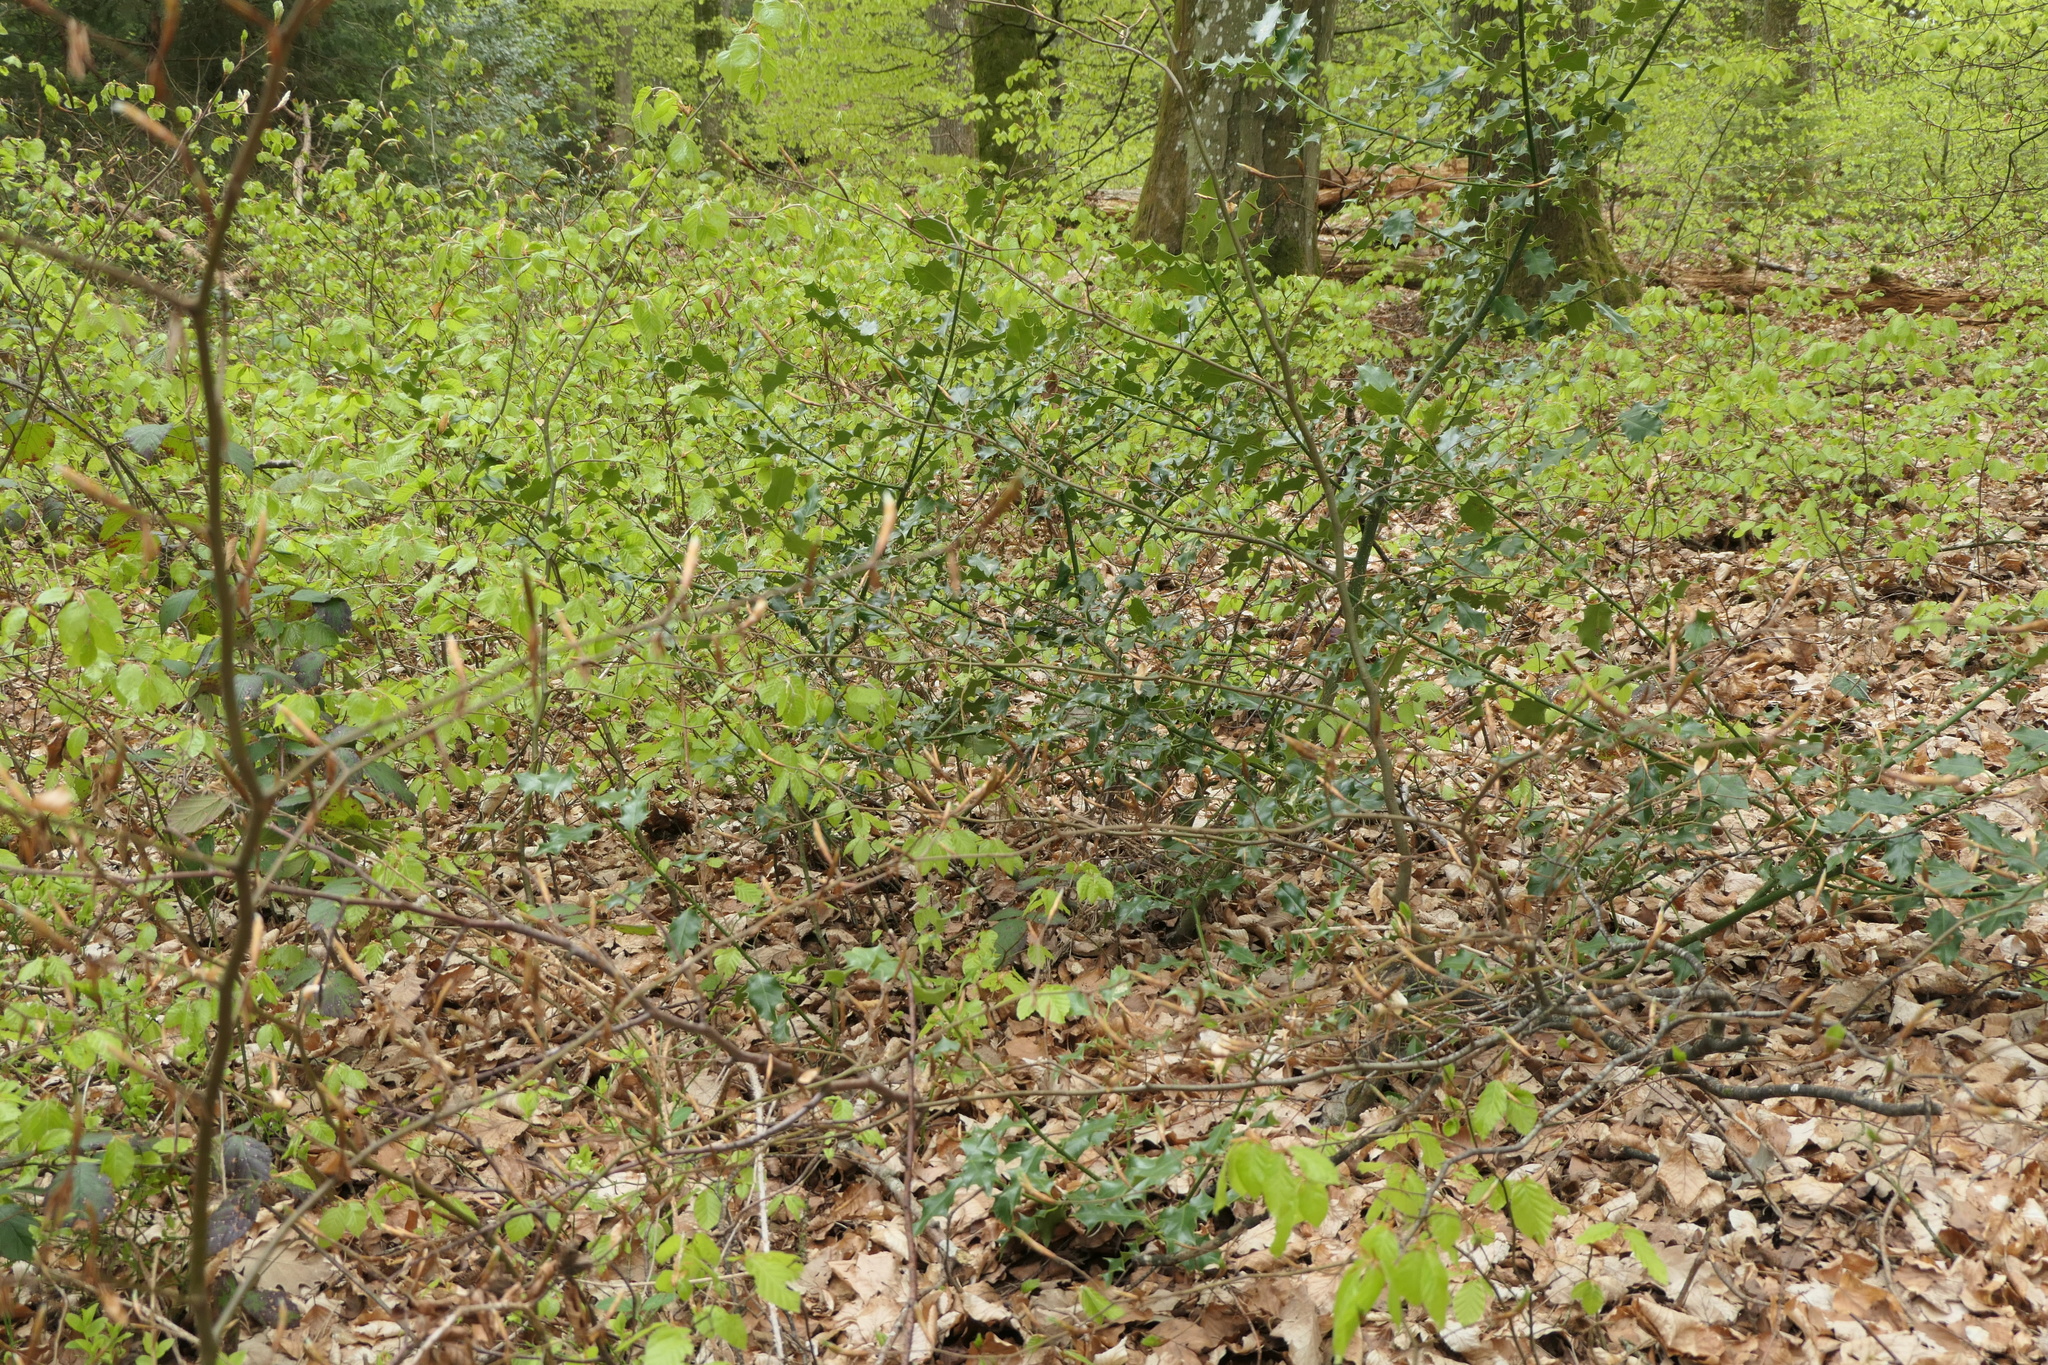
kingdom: Plantae
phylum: Tracheophyta
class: Magnoliopsida
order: Aquifoliales
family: Aquifoliaceae
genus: Ilex
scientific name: Ilex aquifolium
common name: English holly
